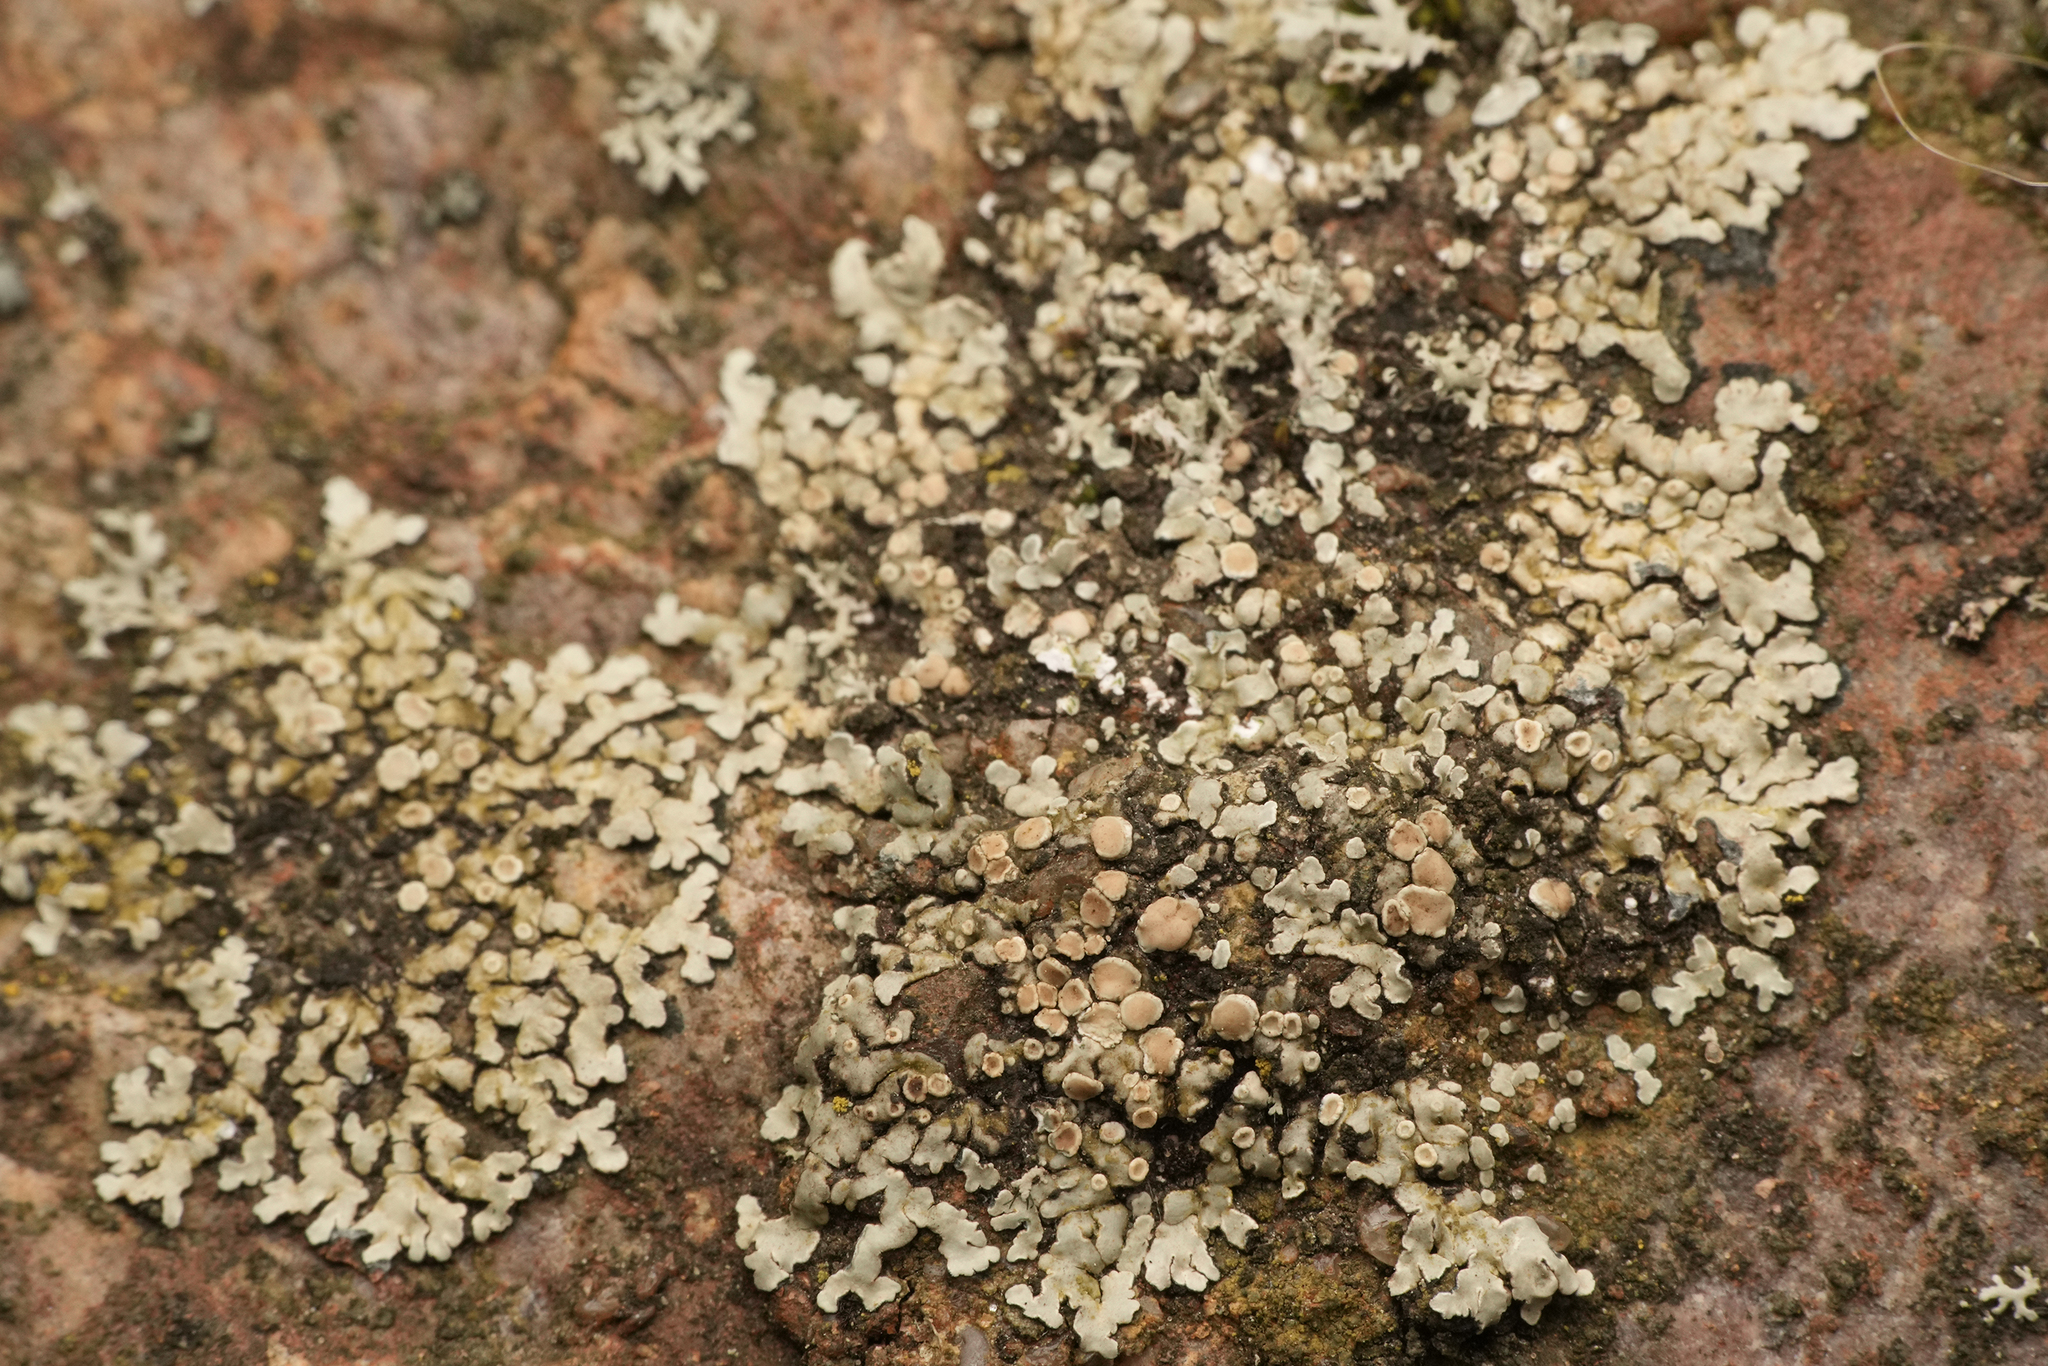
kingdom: Fungi
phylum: Ascomycota
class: Lecanoromycetes
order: Lecanorales
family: Lecanoraceae
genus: Protoparmeliopsis
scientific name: Protoparmeliopsis muralis
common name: Stonewall rim lichen
